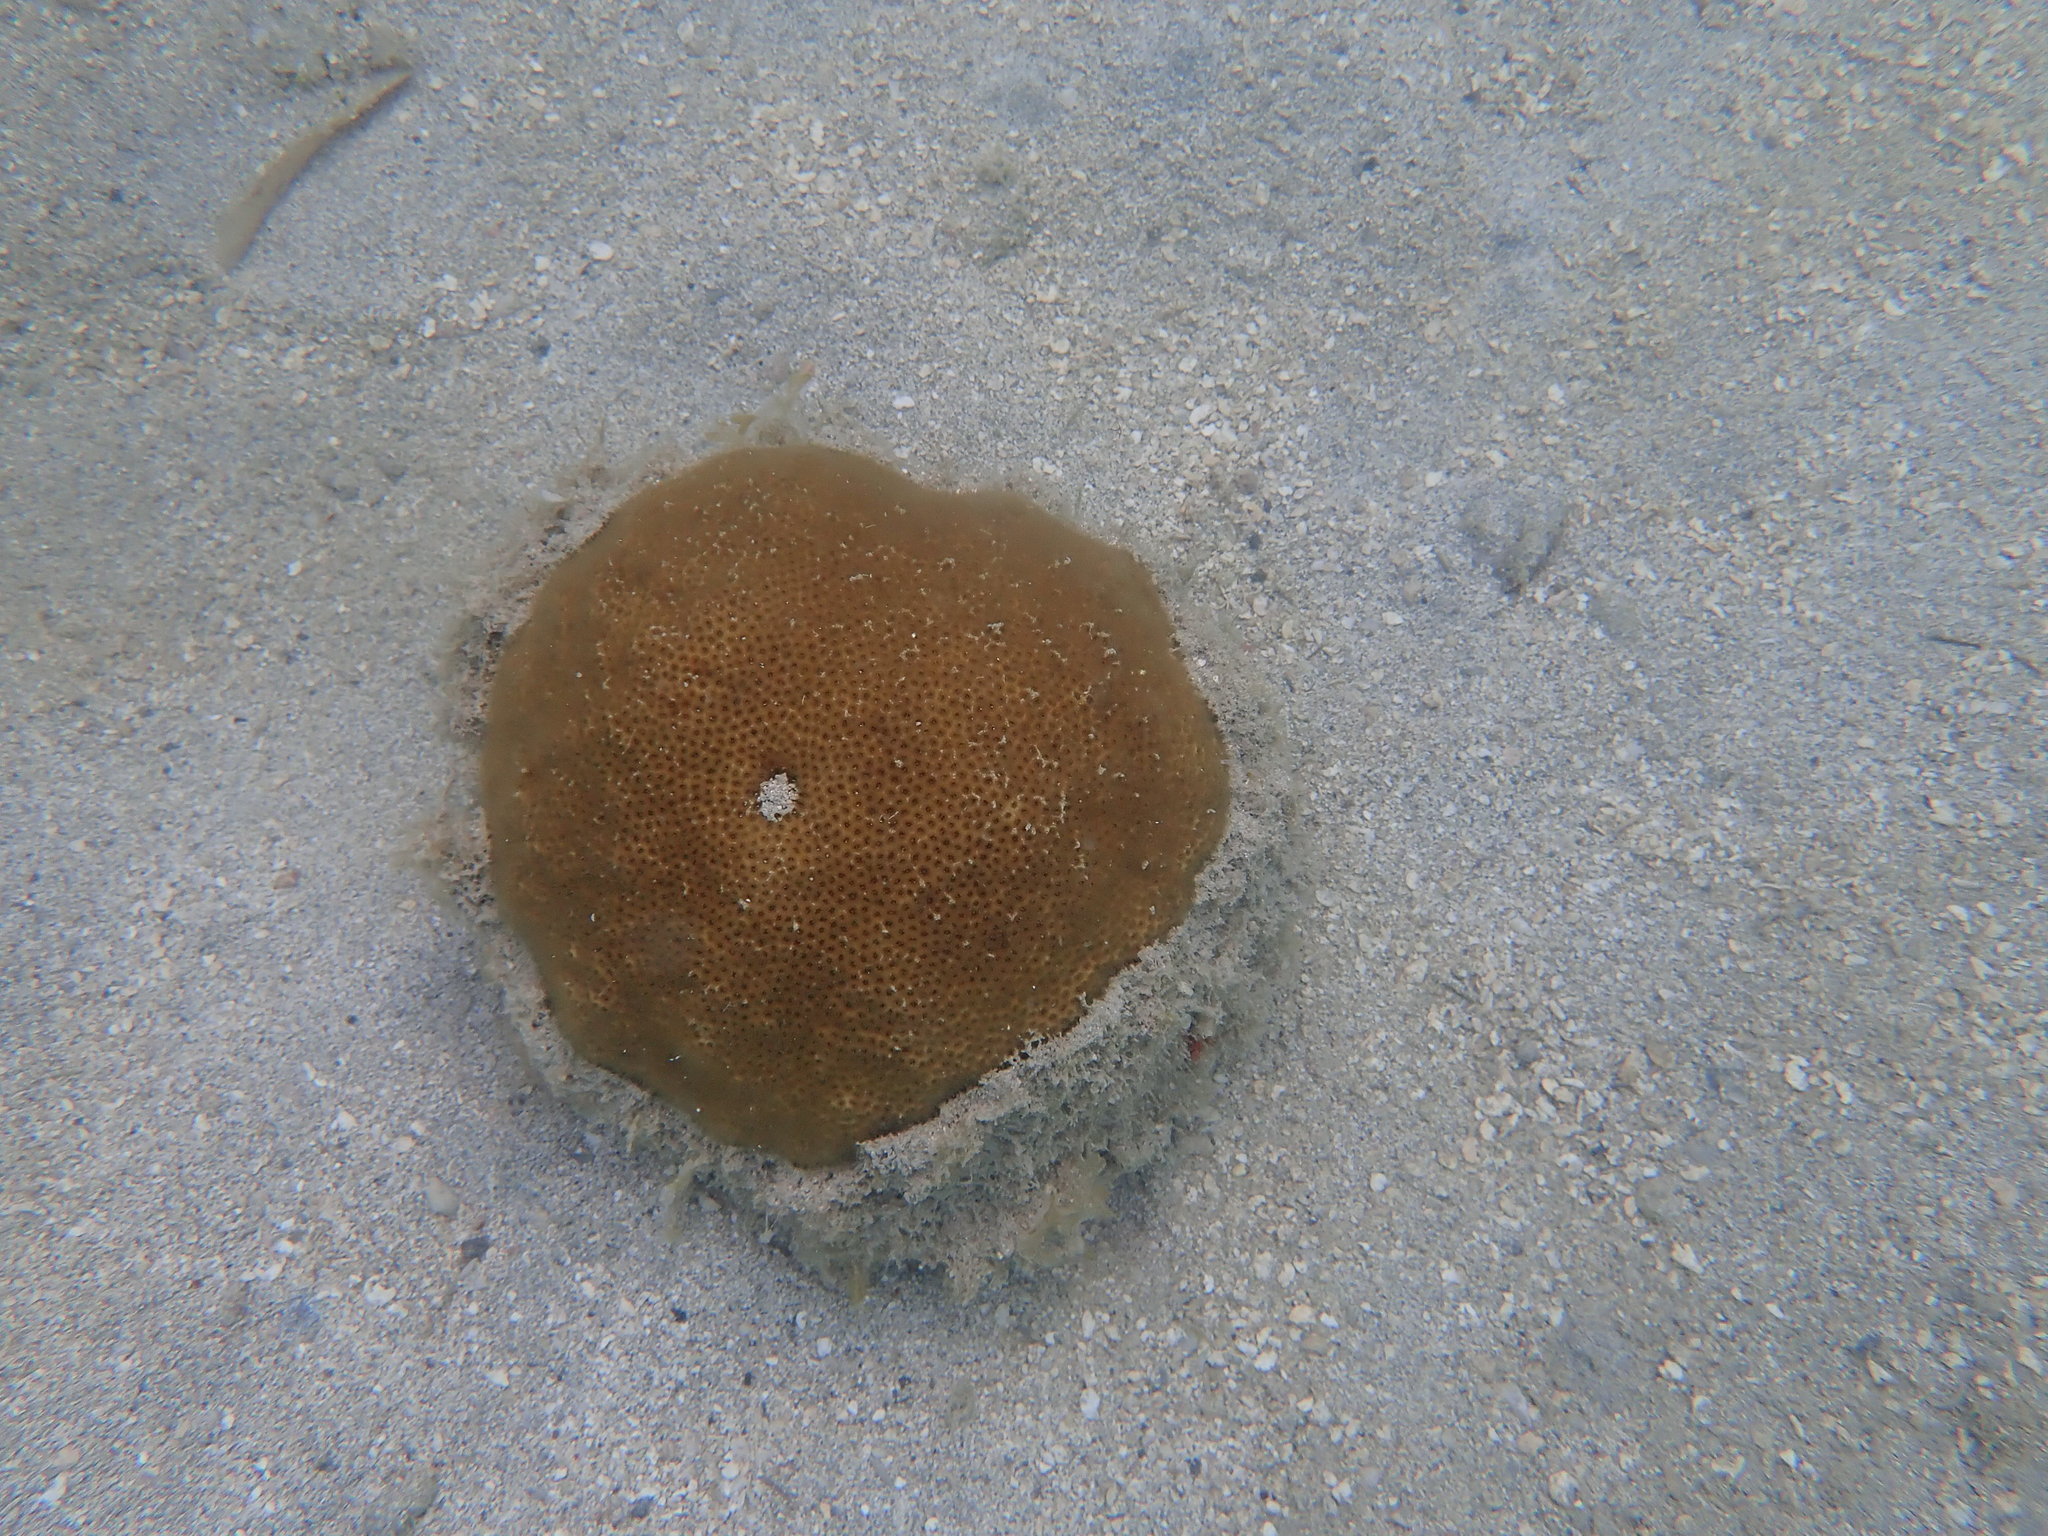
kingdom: Animalia
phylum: Cnidaria
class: Anthozoa
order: Scleractinia
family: Faviidae
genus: Solenastrea
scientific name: Solenastrea bournoni
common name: Smooth star coral
